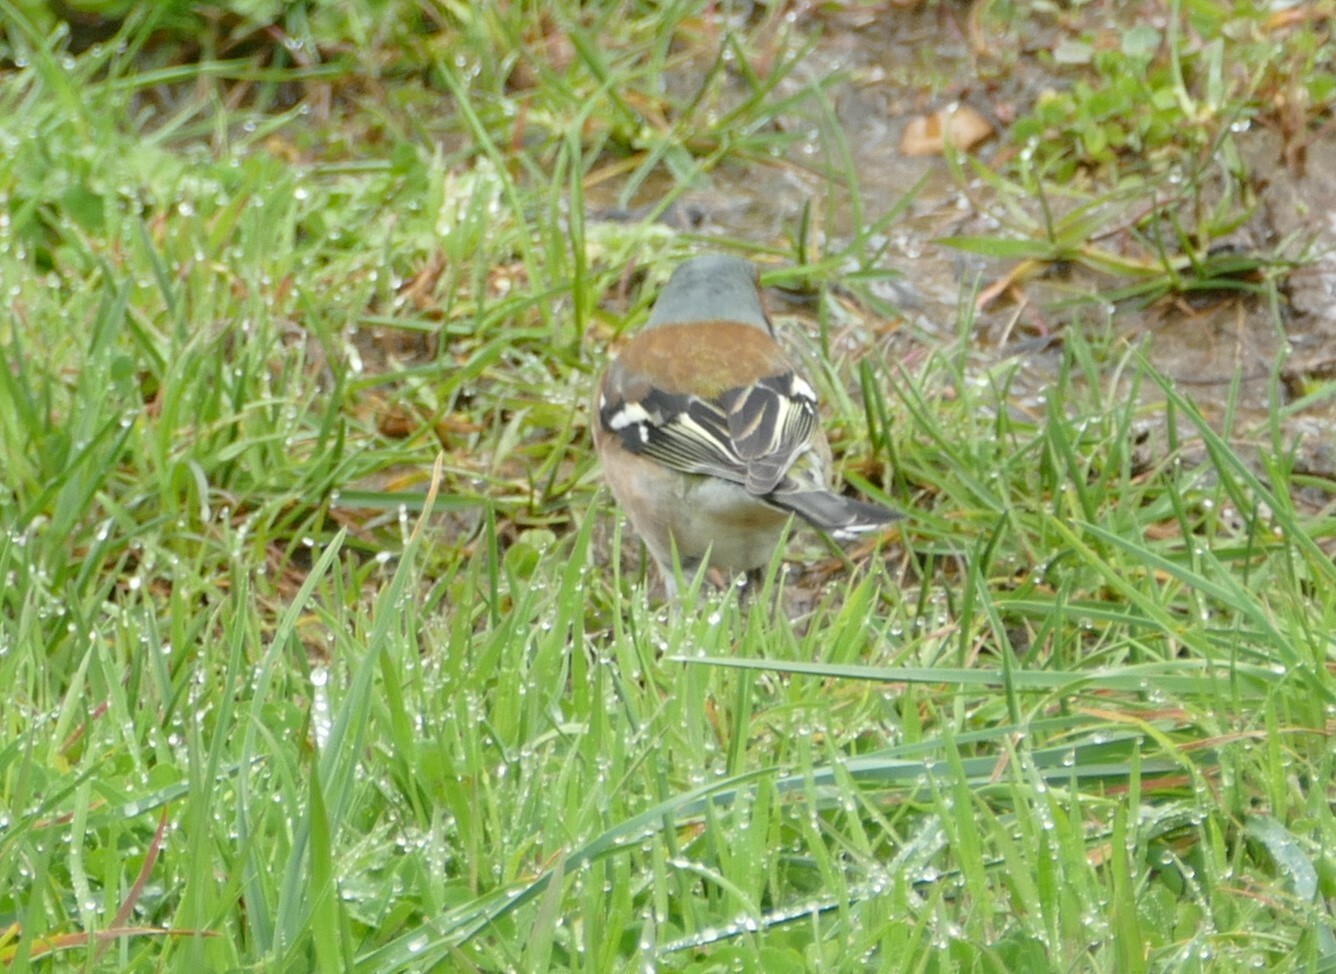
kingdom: Animalia
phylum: Chordata
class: Aves
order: Passeriformes
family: Fringillidae
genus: Fringilla
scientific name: Fringilla coelebs
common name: Common chaffinch
